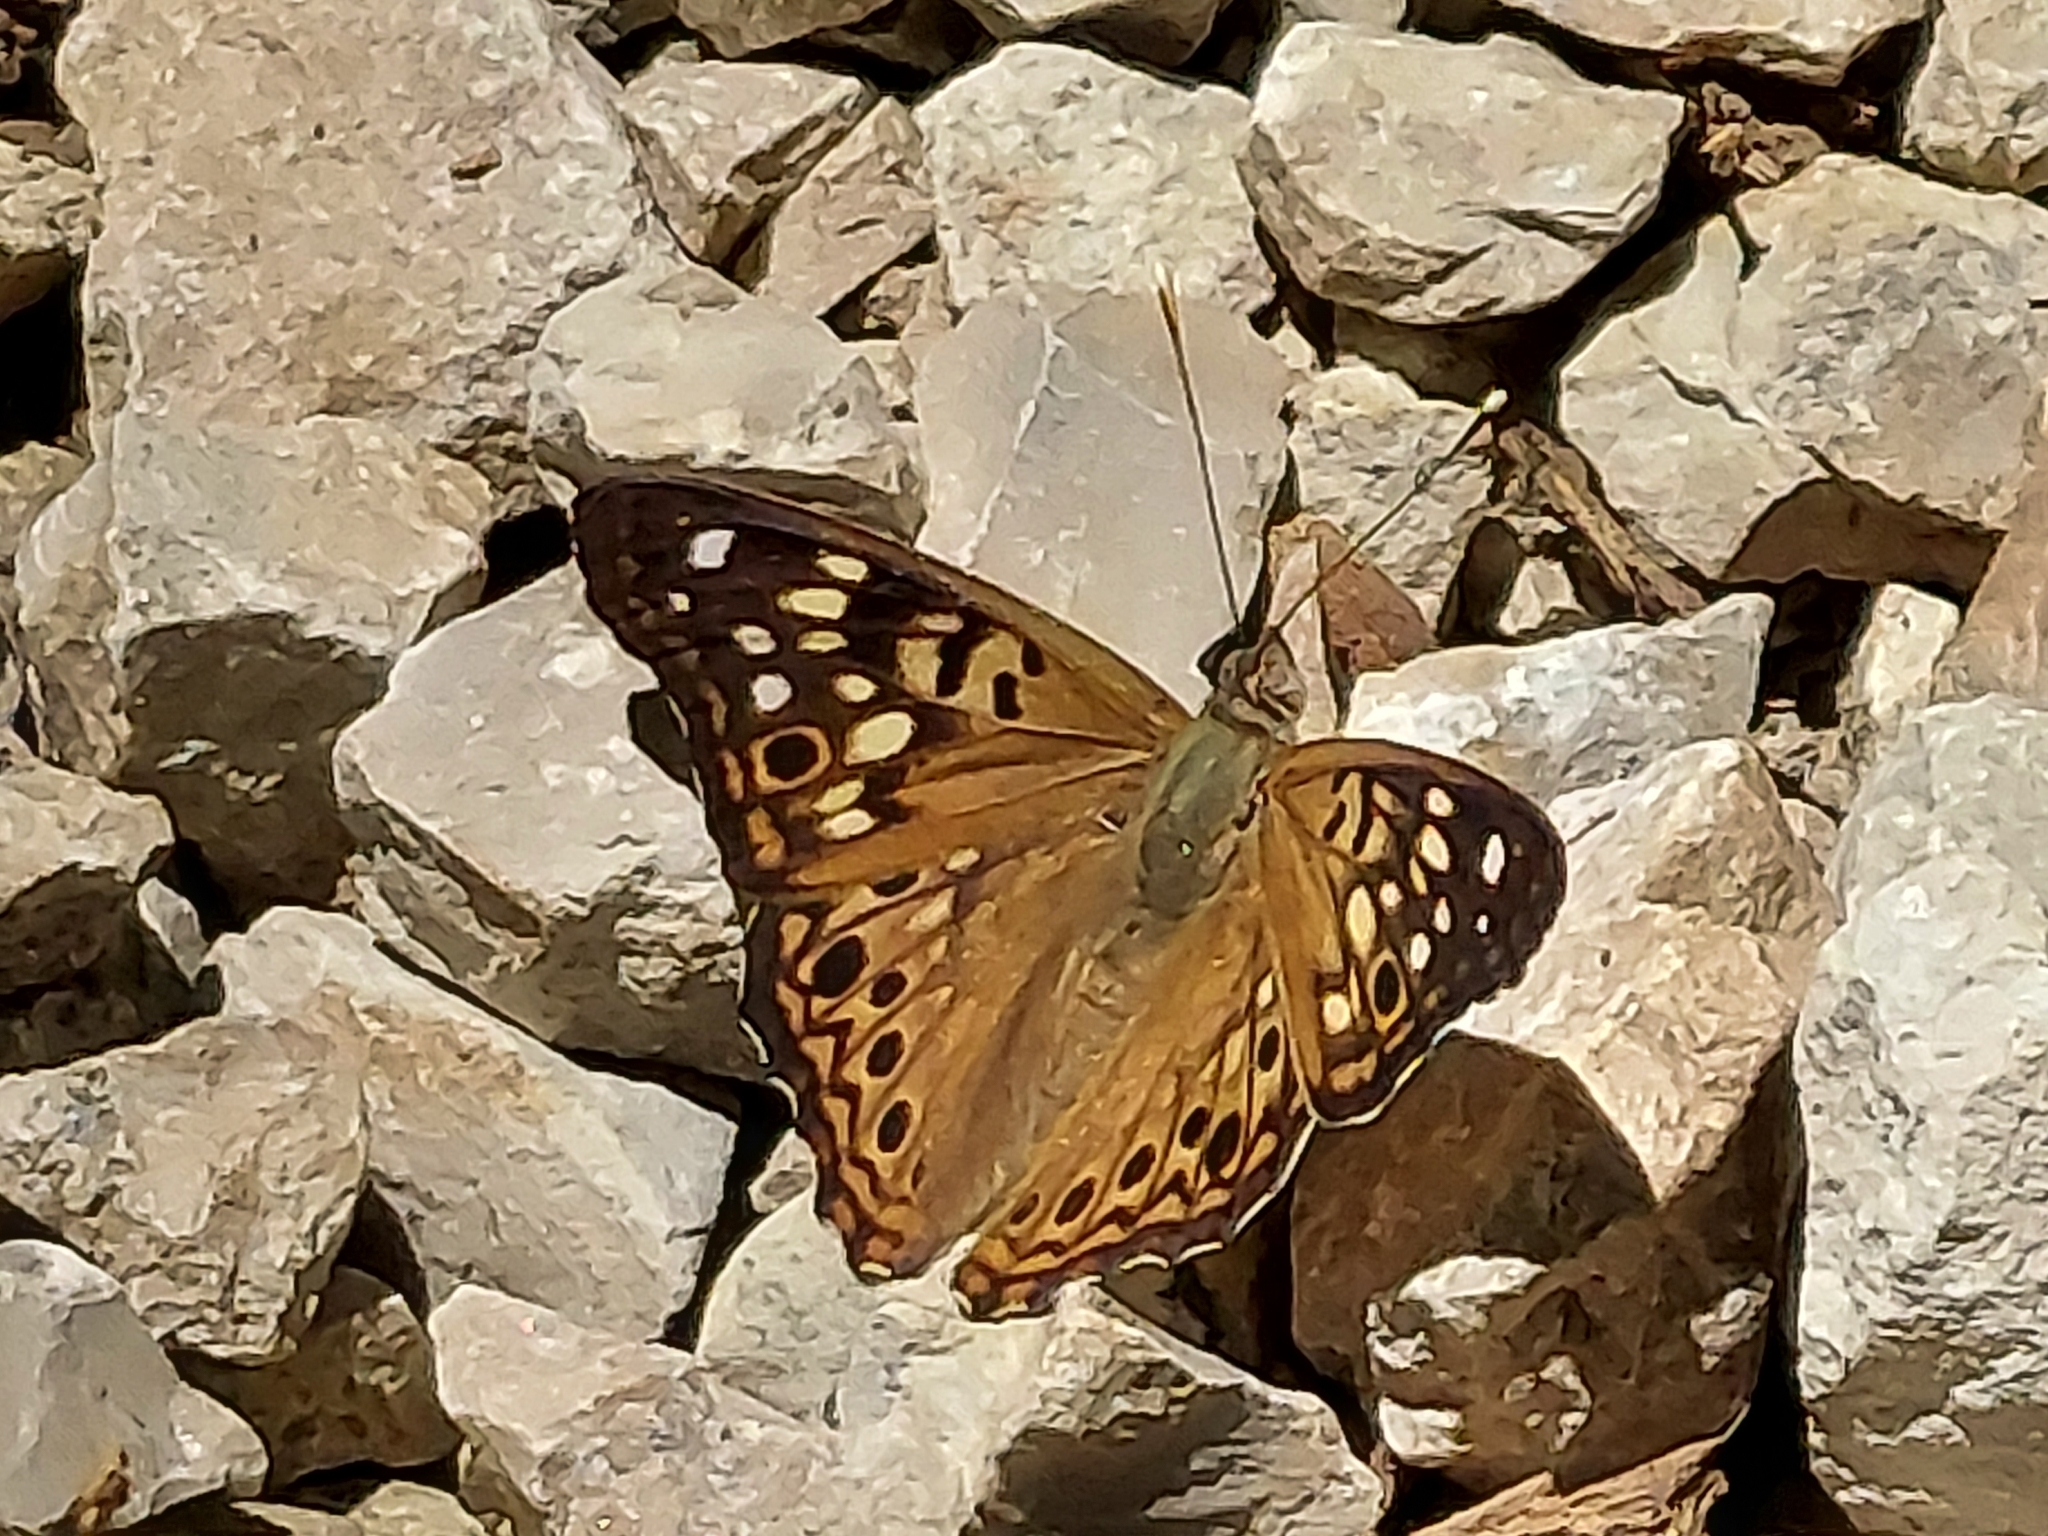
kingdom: Animalia
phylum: Arthropoda
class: Insecta
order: Lepidoptera
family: Nymphalidae
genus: Asterocampa
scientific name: Asterocampa celtis
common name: Hackberry emperor
